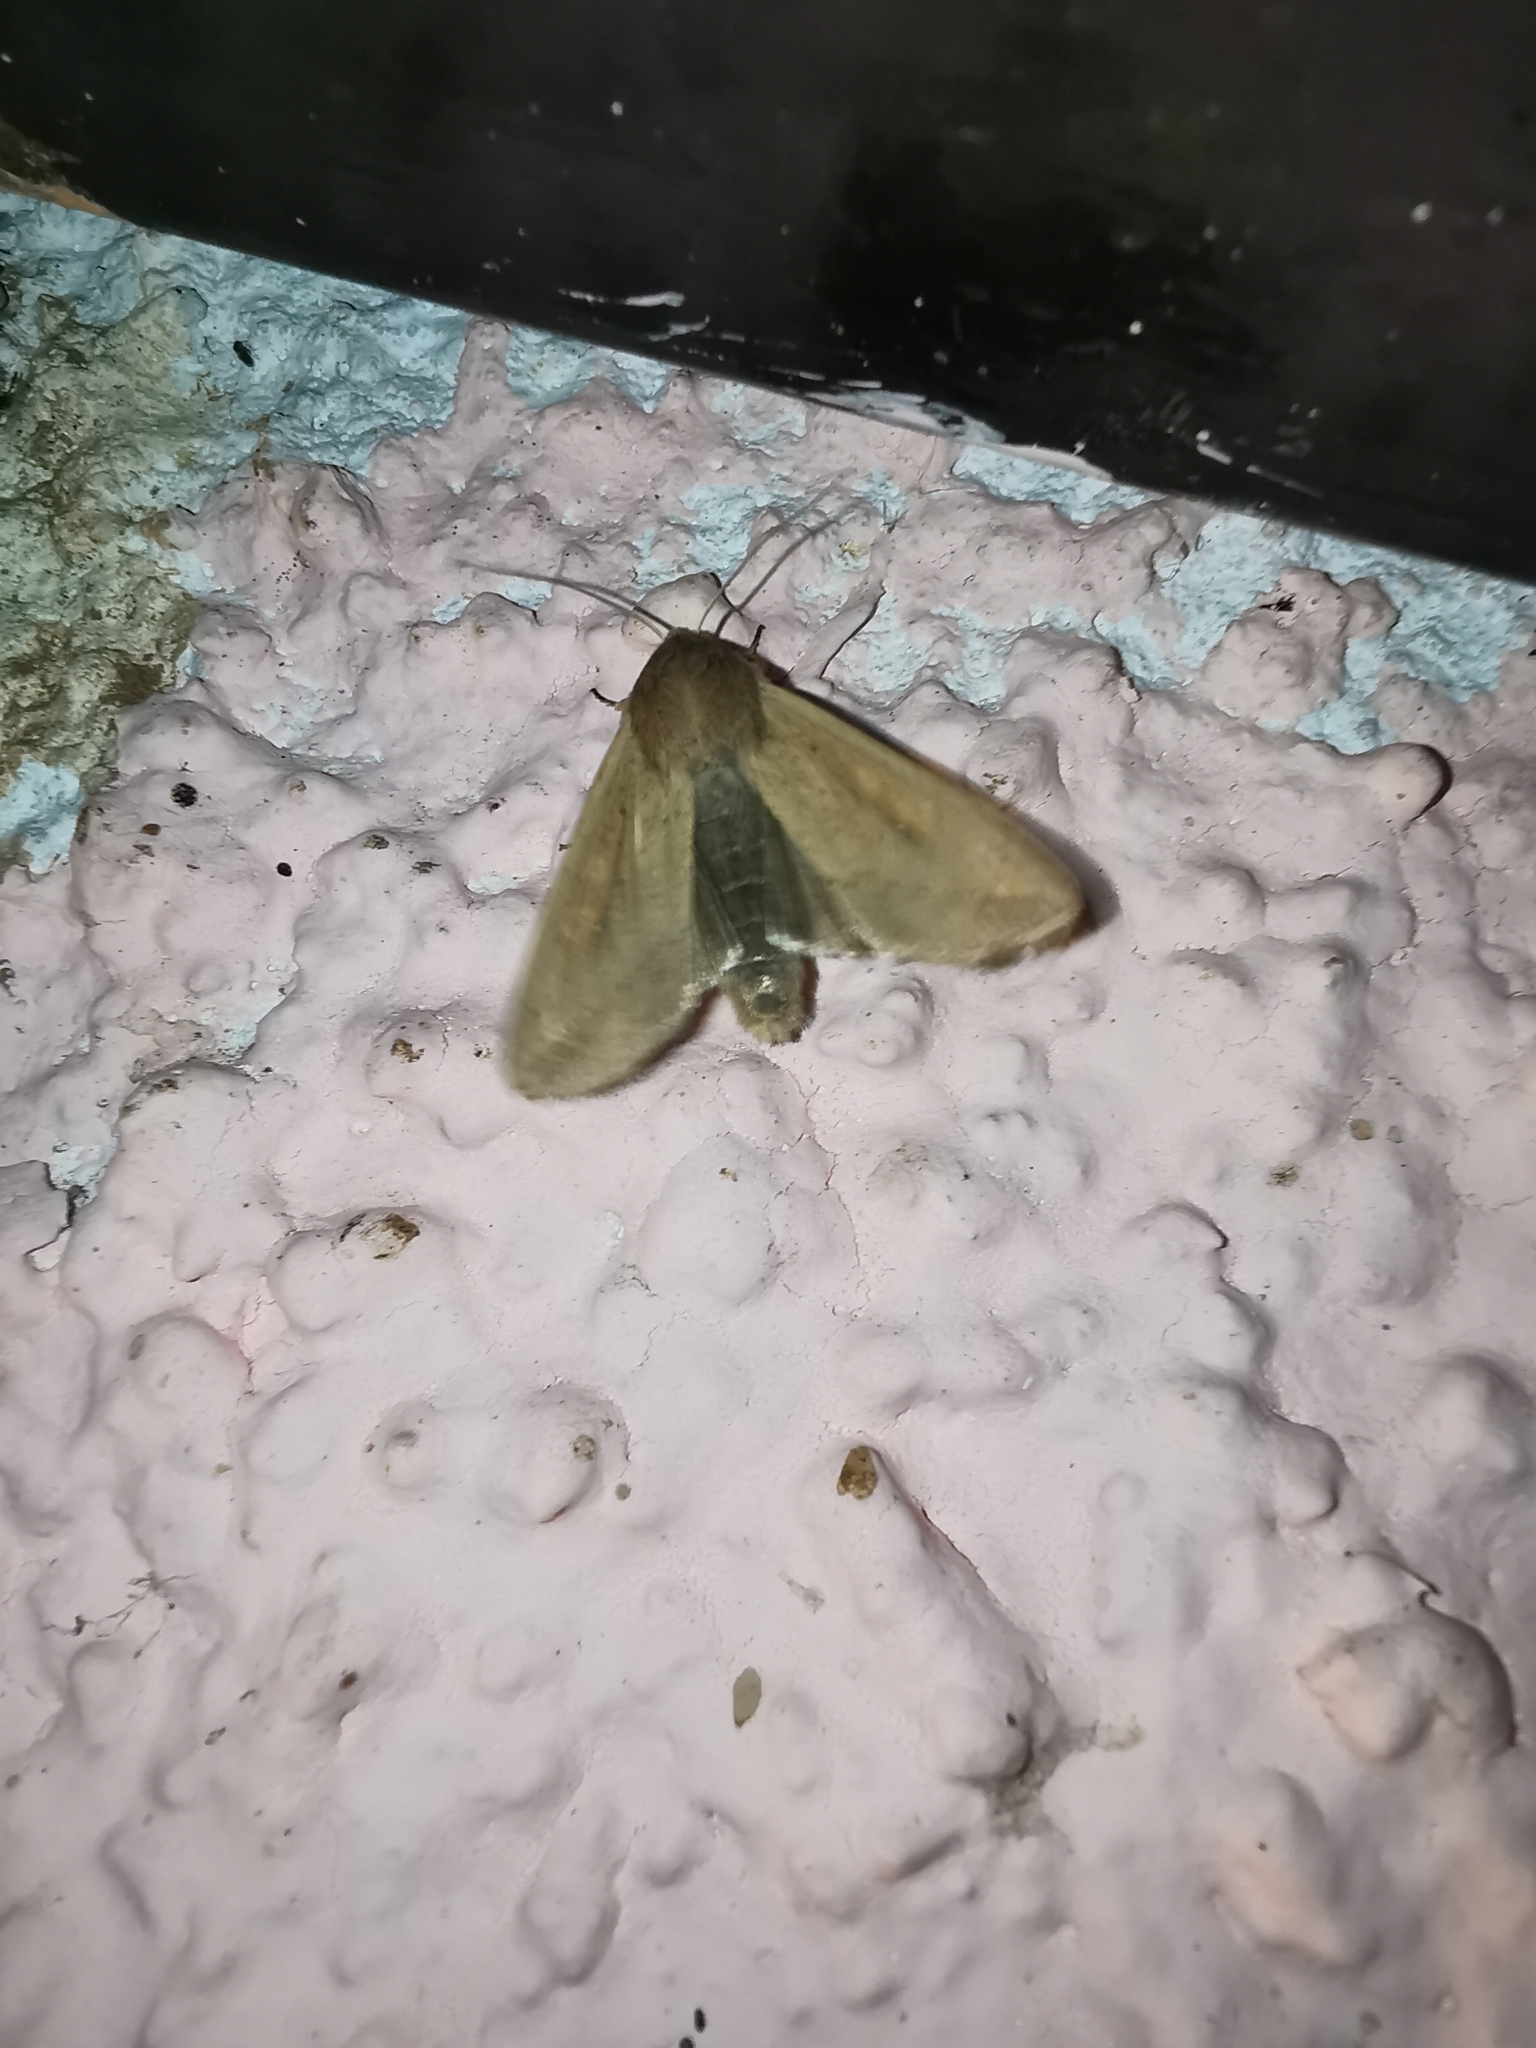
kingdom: Animalia
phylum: Arthropoda
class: Insecta
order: Lepidoptera
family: Noctuidae
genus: Mythimna
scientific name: Mythimna unipuncta
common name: White-speck
